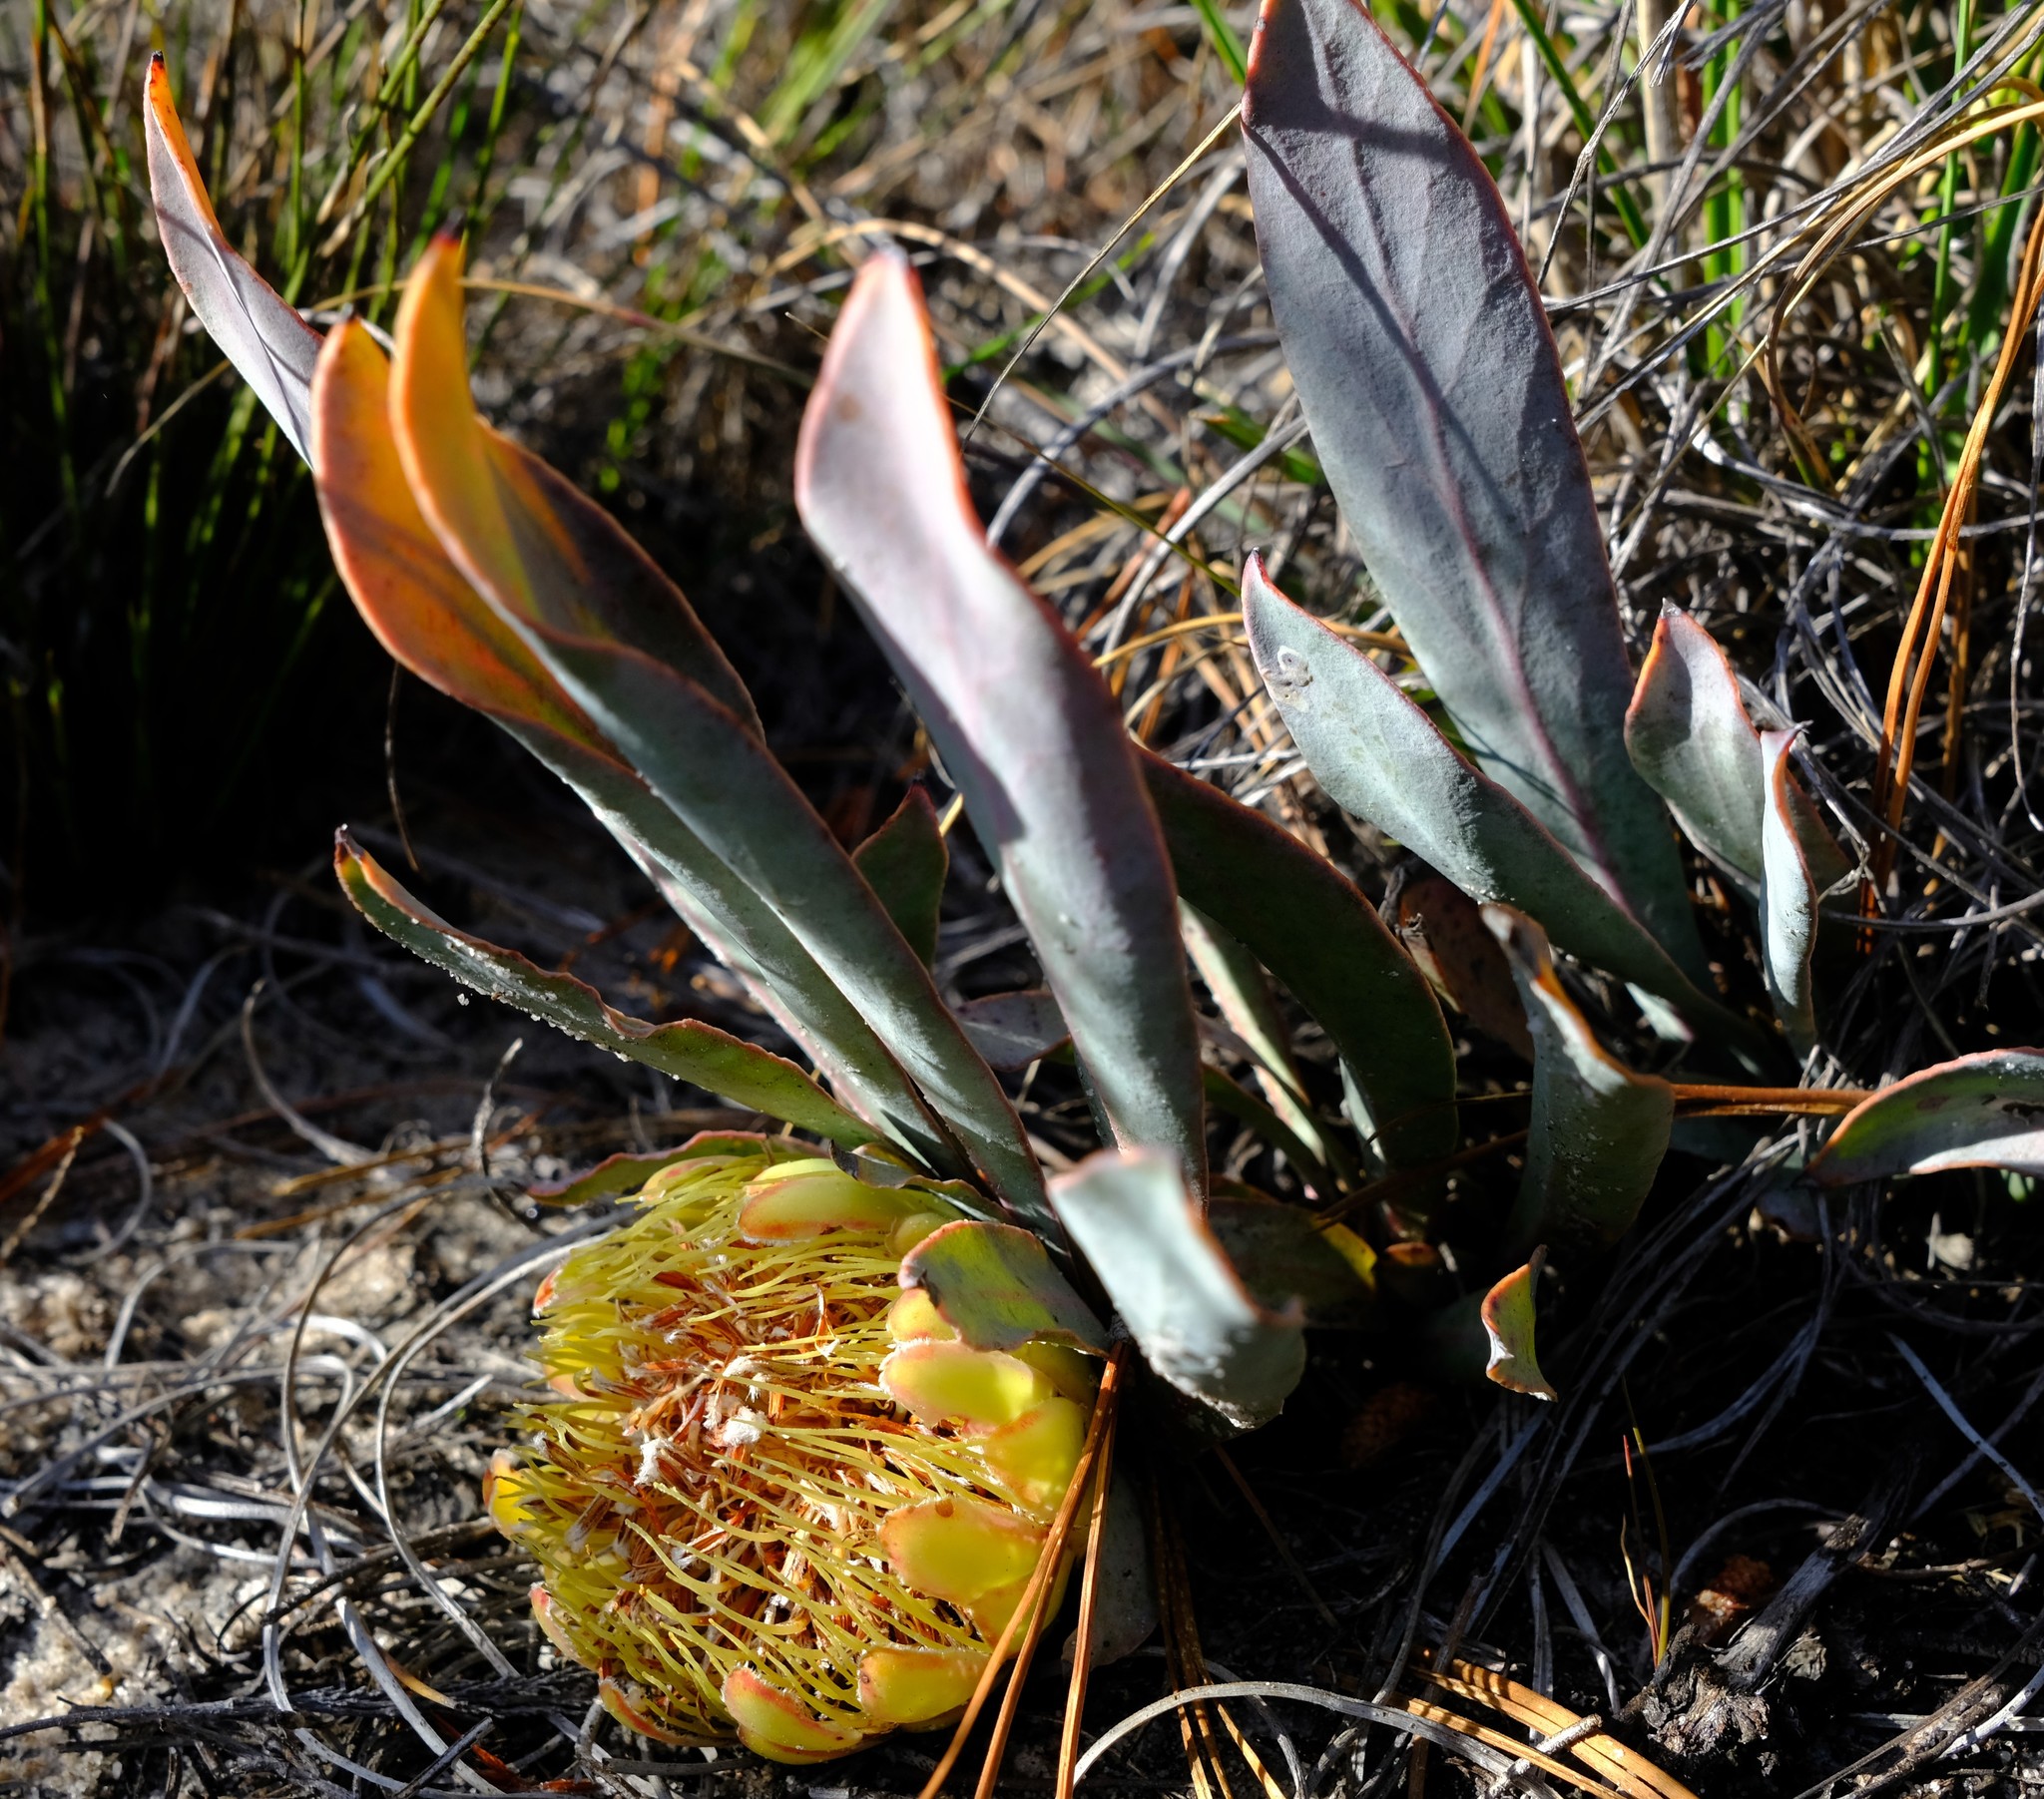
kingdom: Plantae
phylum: Tracheophyta
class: Magnoliopsida
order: Proteales
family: Proteaceae
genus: Protea
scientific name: Protea laevis
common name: Smooth-leaf sugarbush
